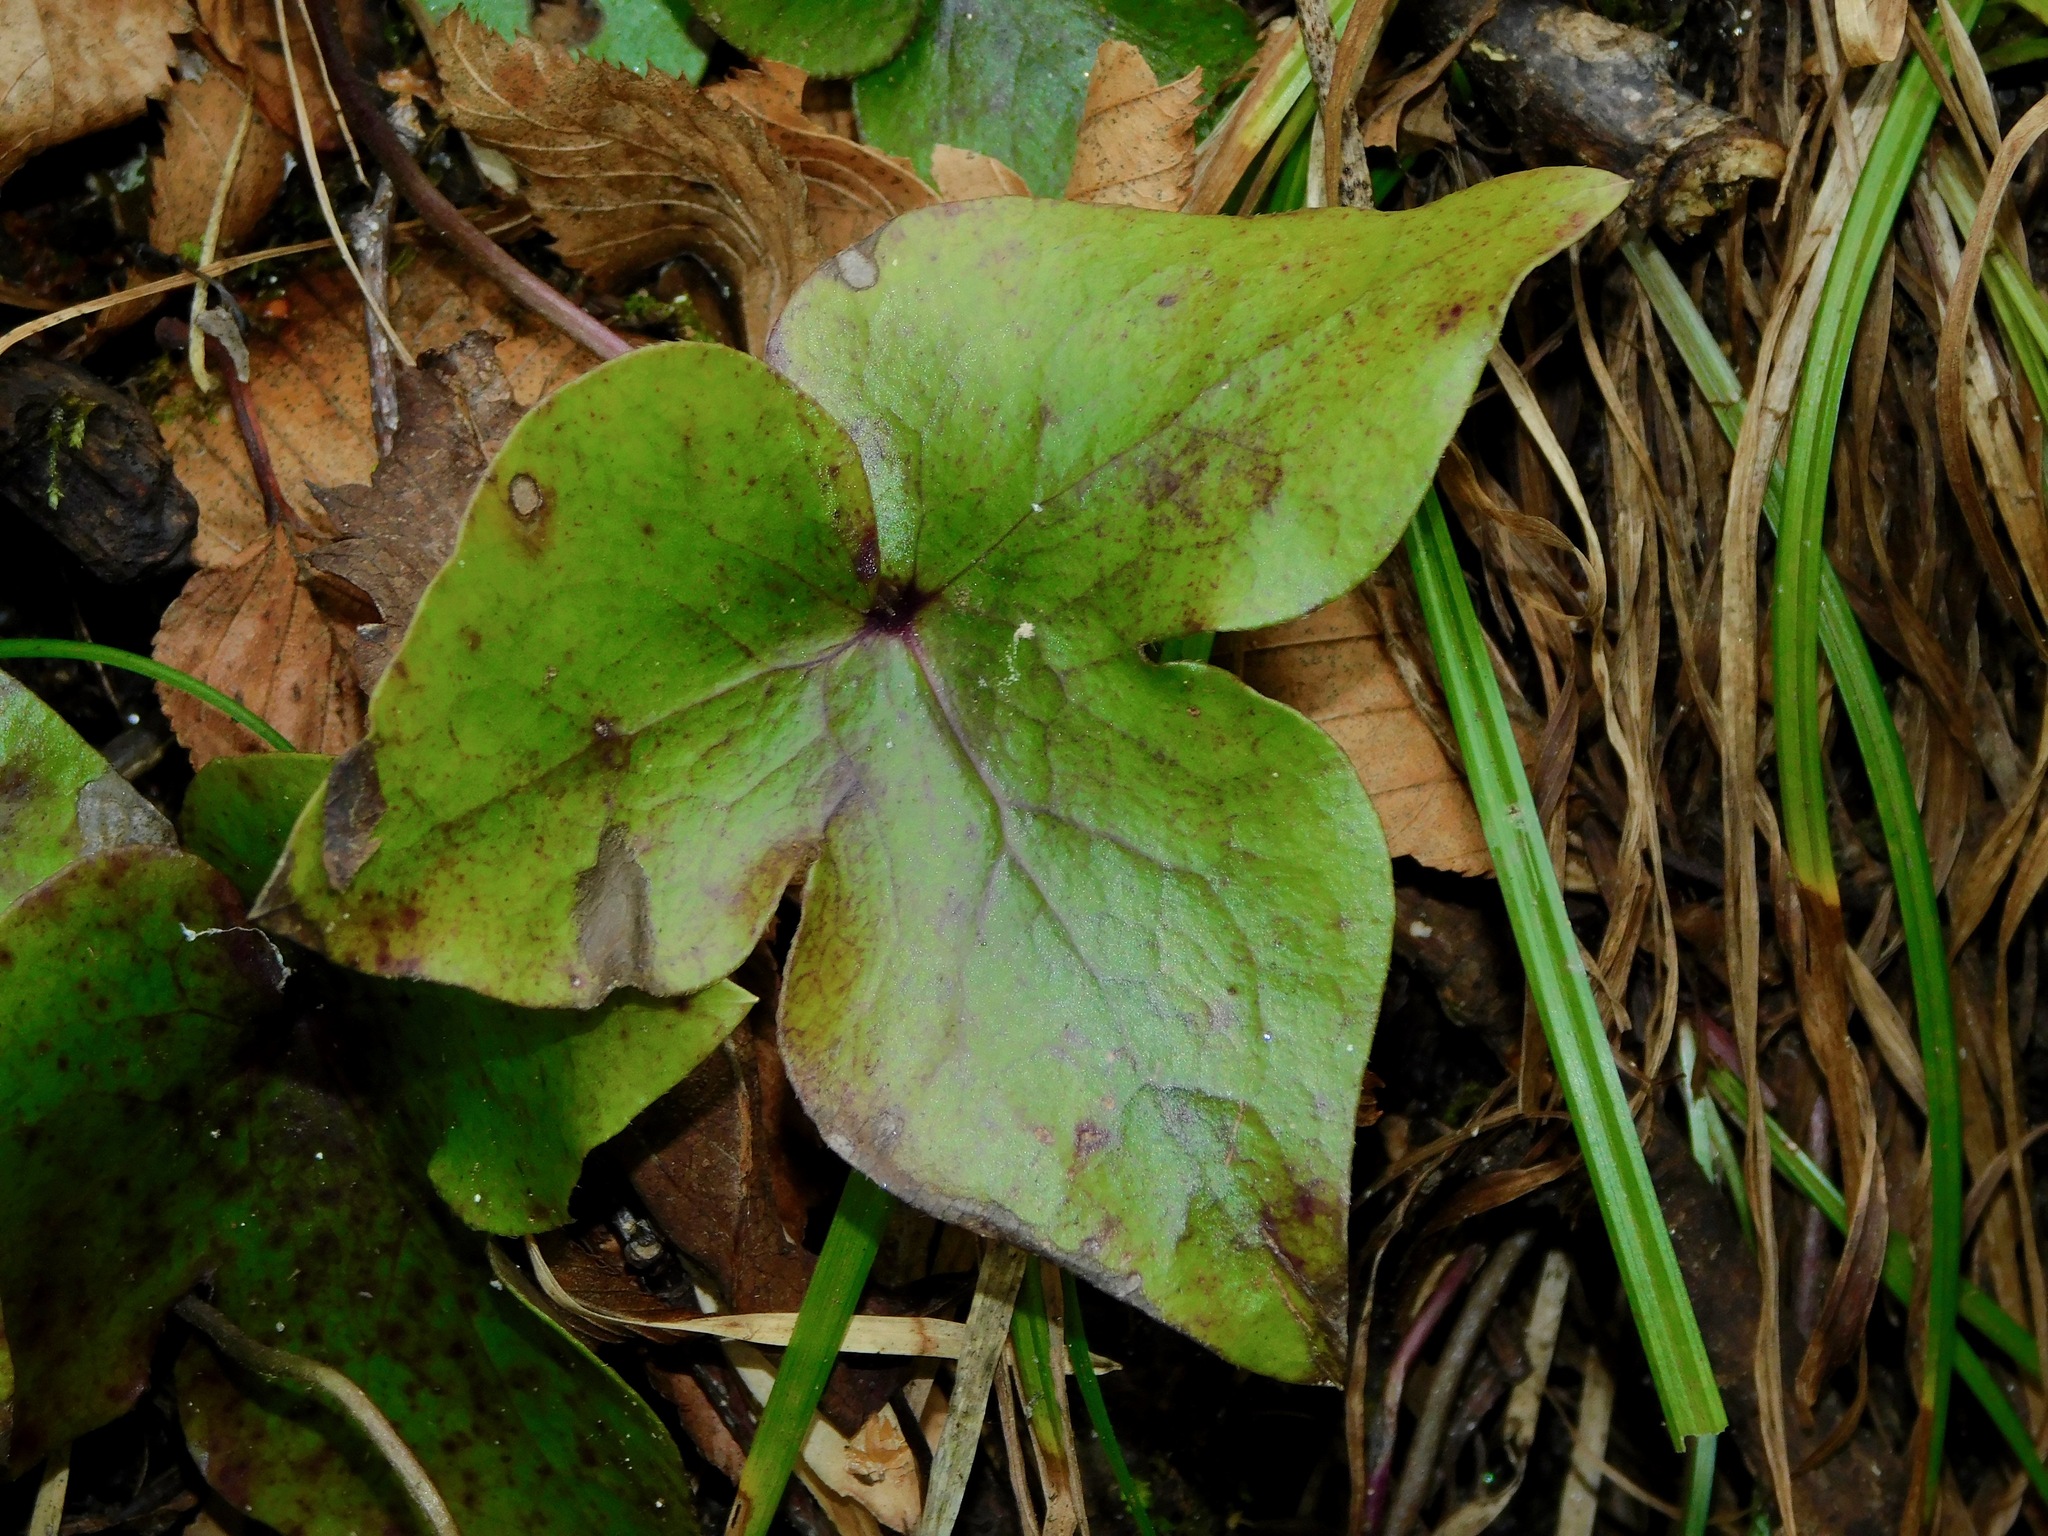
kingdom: Plantae
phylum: Tracheophyta
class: Magnoliopsida
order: Ranunculales
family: Ranunculaceae
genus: Hepatica
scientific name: Hepatica acutiloba
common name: Sharp-lobed hepatica
